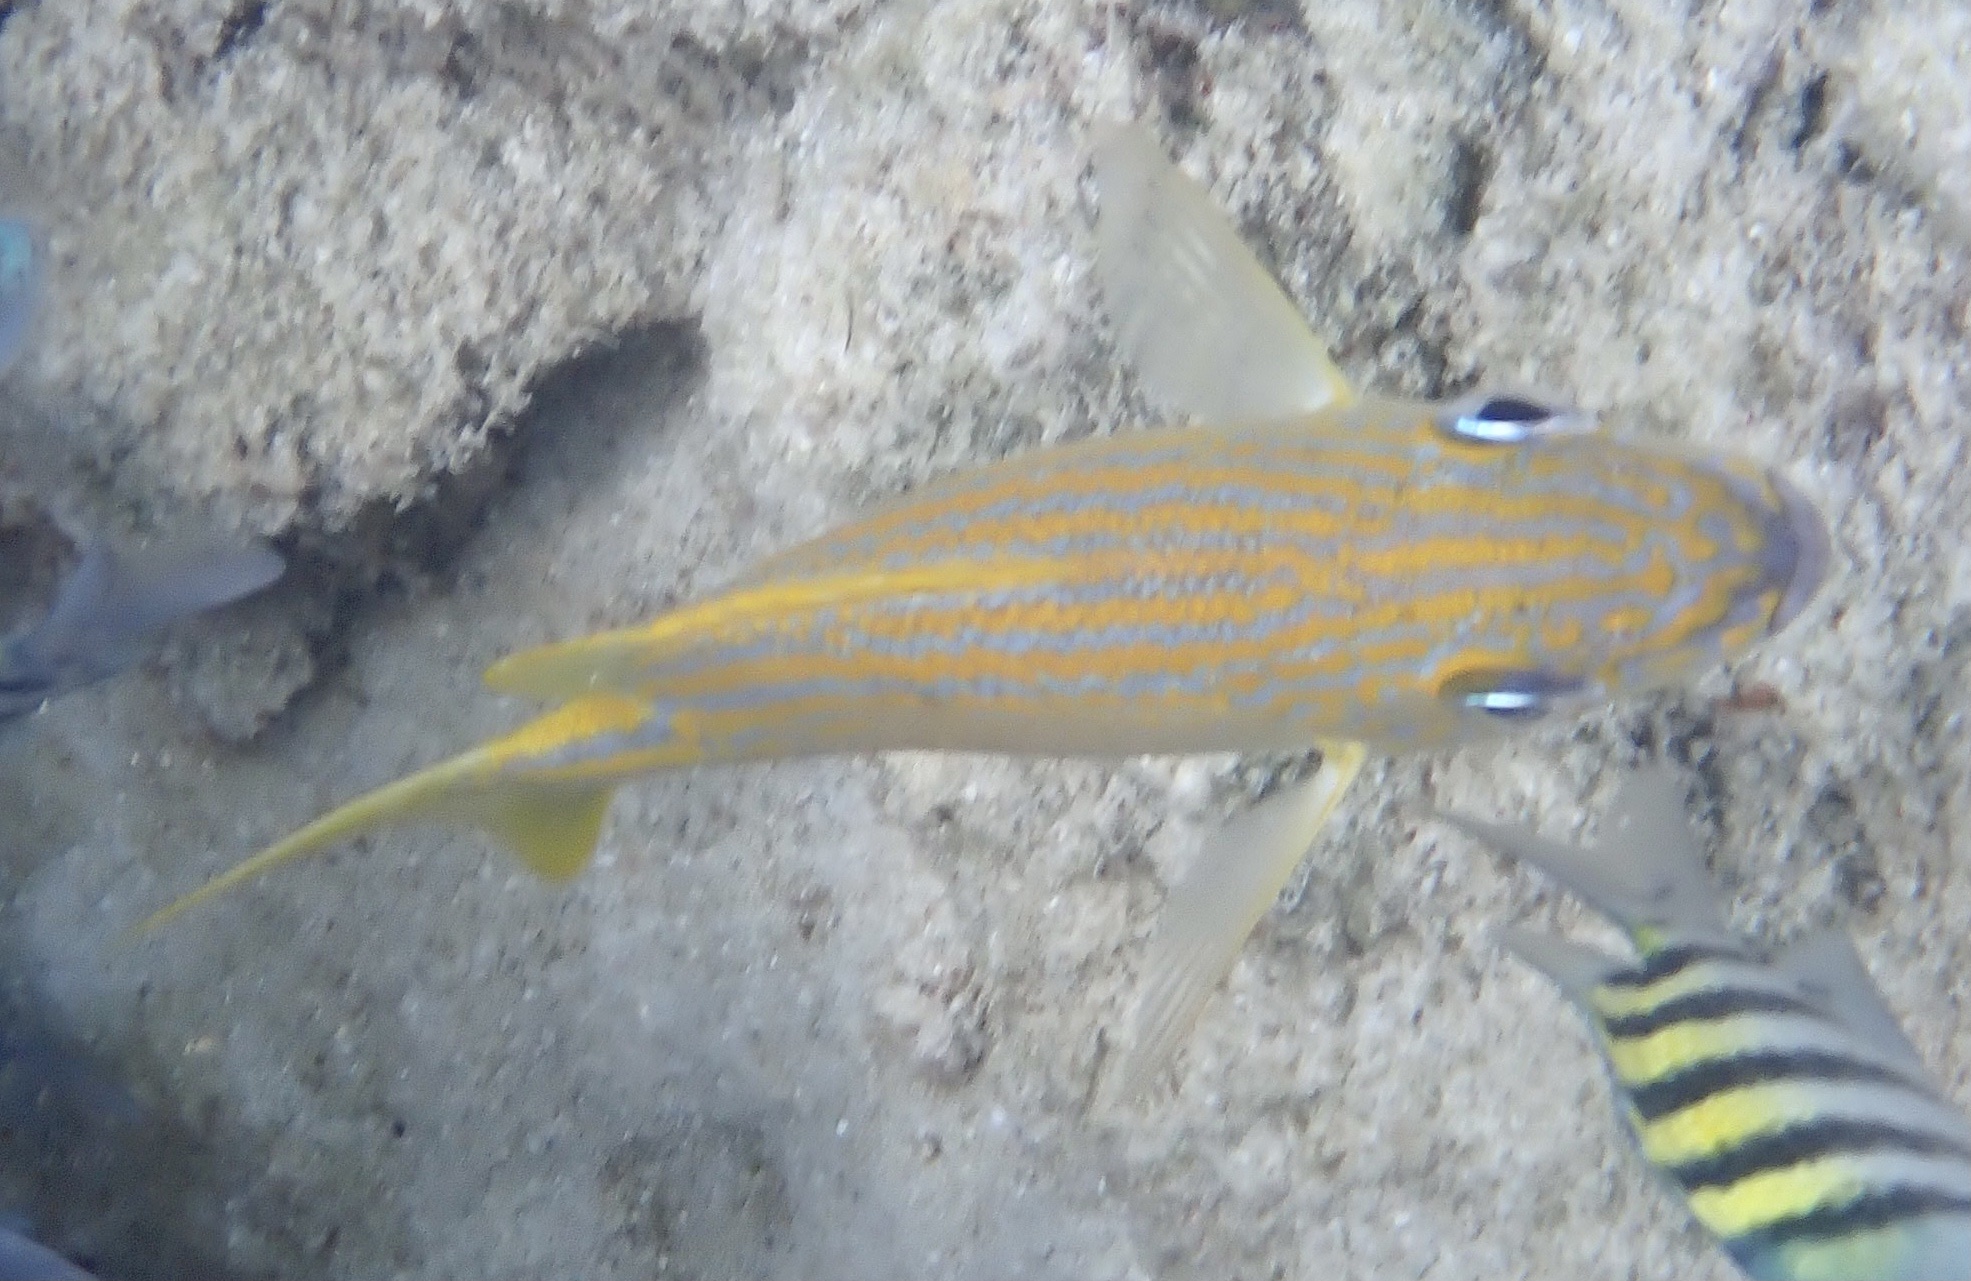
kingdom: Animalia
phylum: Chordata
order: Perciformes
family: Haemulidae
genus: Haemulon
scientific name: Haemulon flavolineatum
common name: French grunt
